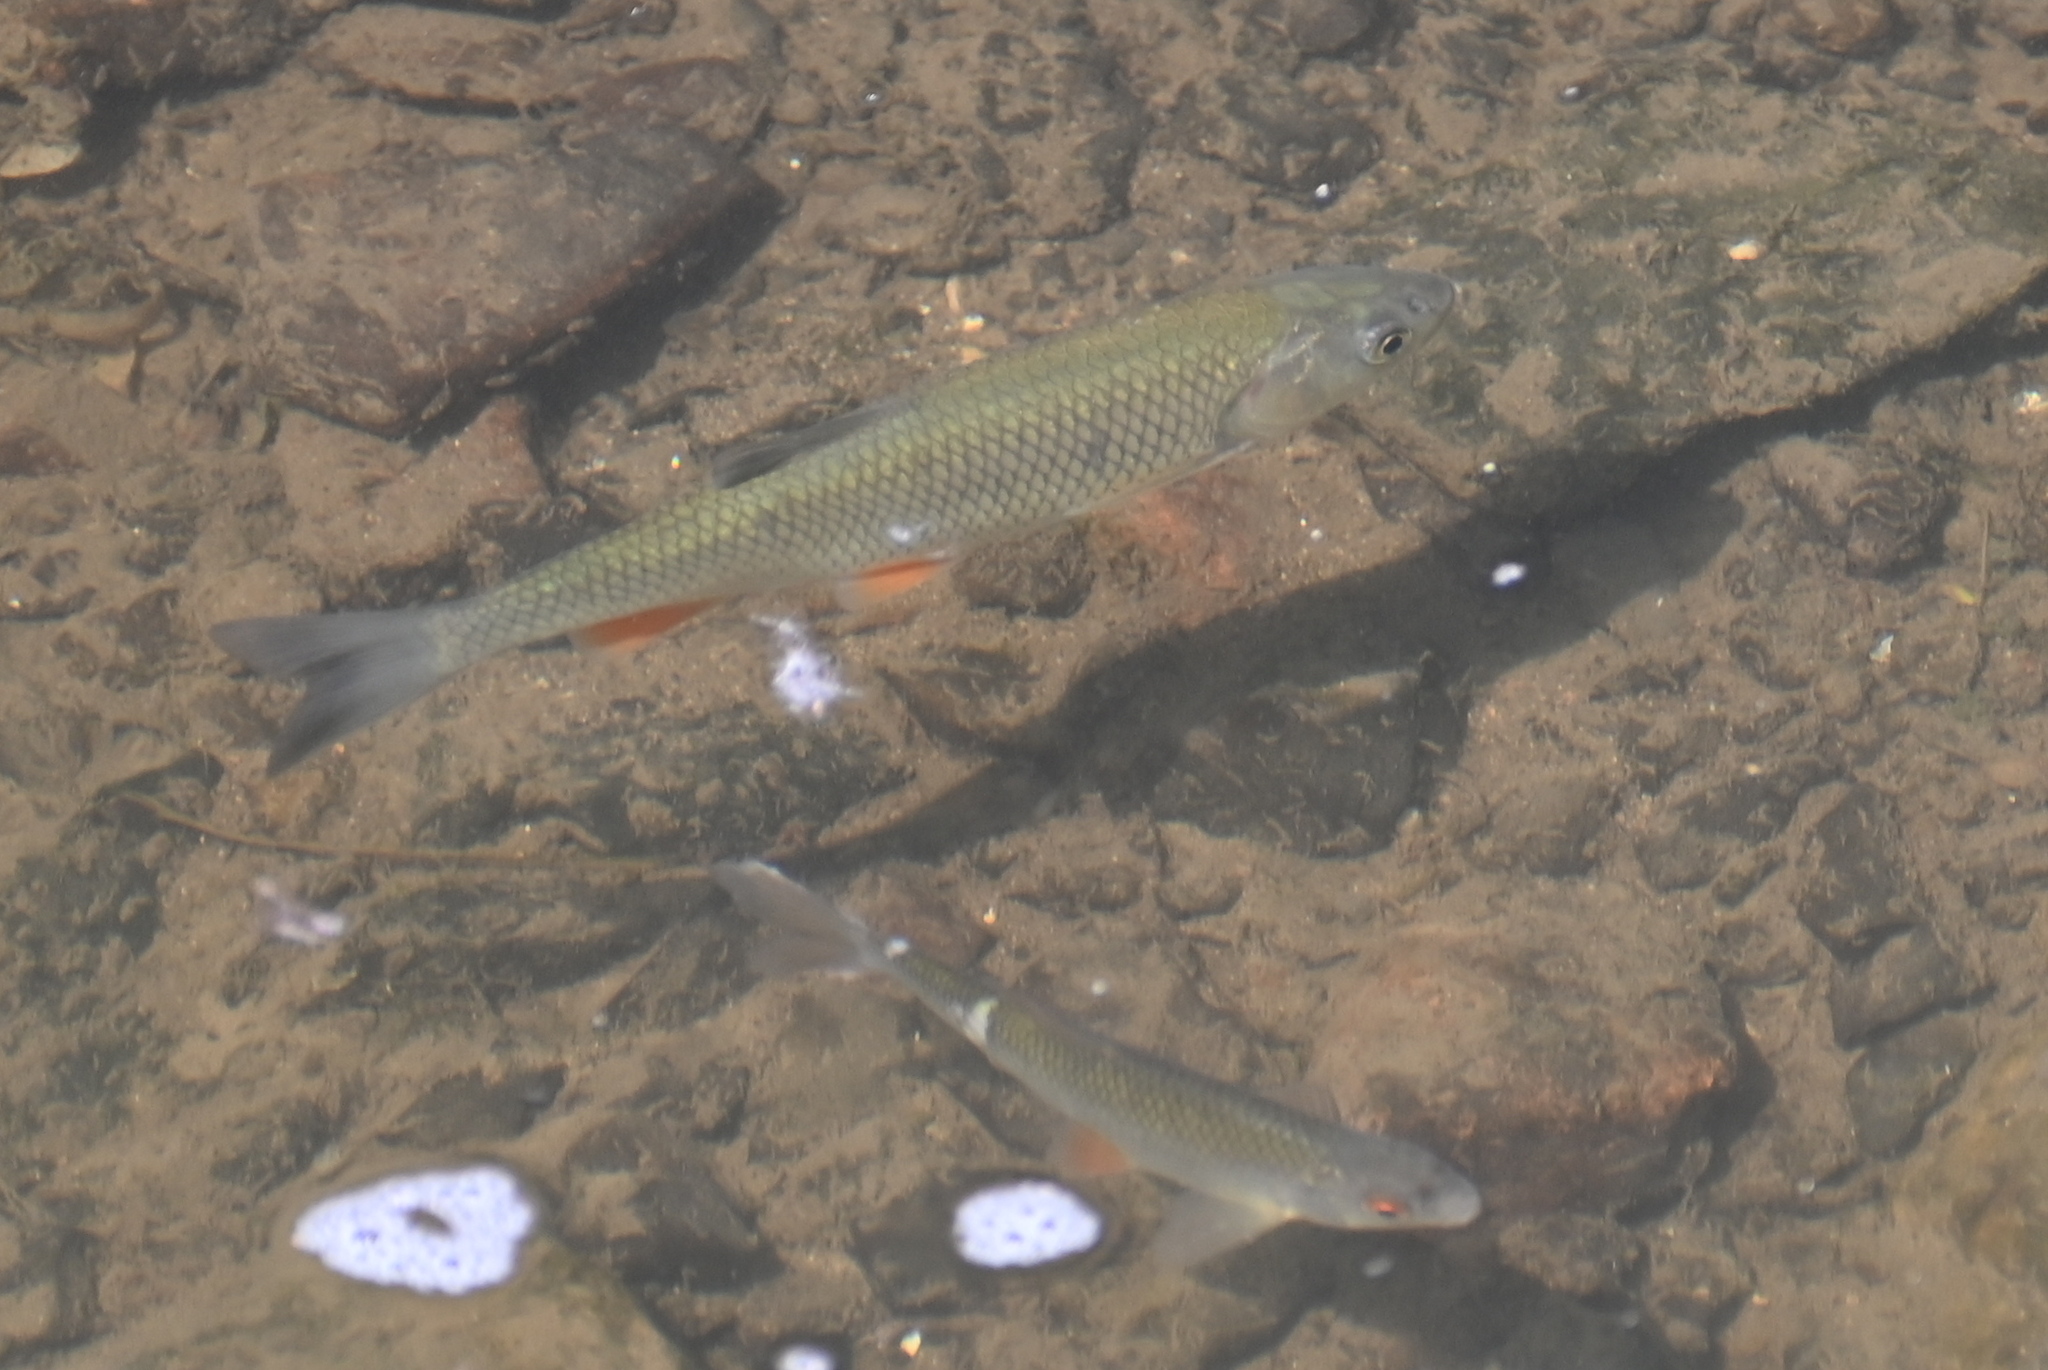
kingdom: Animalia
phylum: Chordata
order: Cypriniformes
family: Cyprinidae
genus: Squalius
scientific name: Squalius cephalus
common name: Chub
